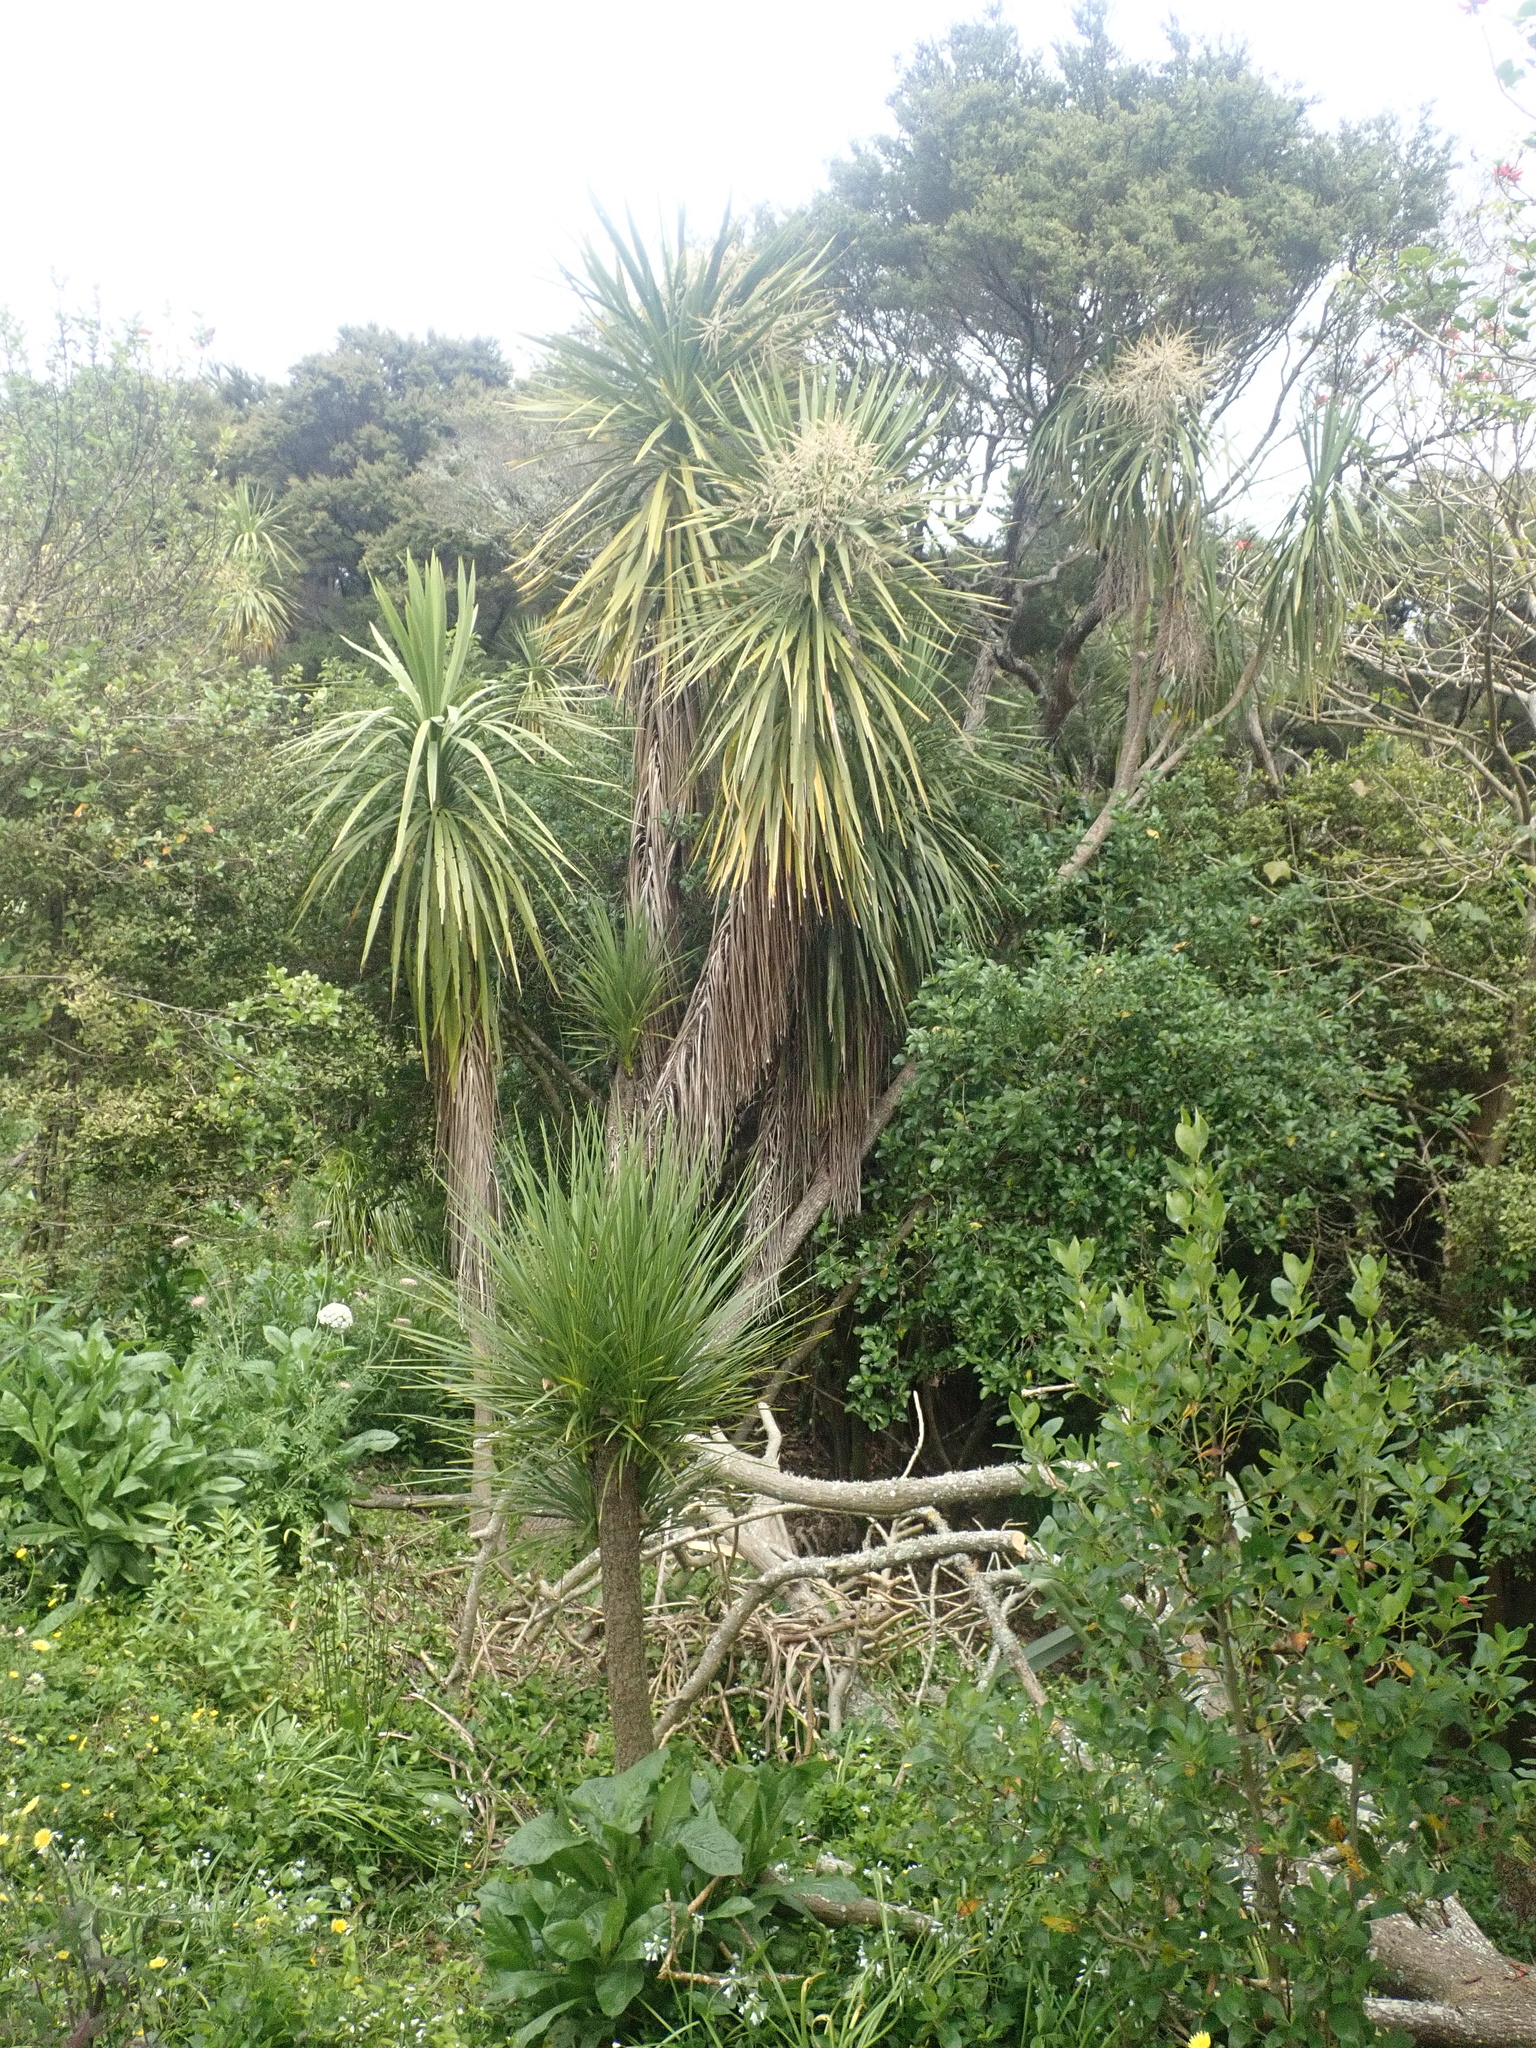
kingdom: Plantae
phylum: Tracheophyta
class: Liliopsida
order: Asparagales
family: Asparagaceae
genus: Cordyline
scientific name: Cordyline australis
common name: Cabbage-palm
